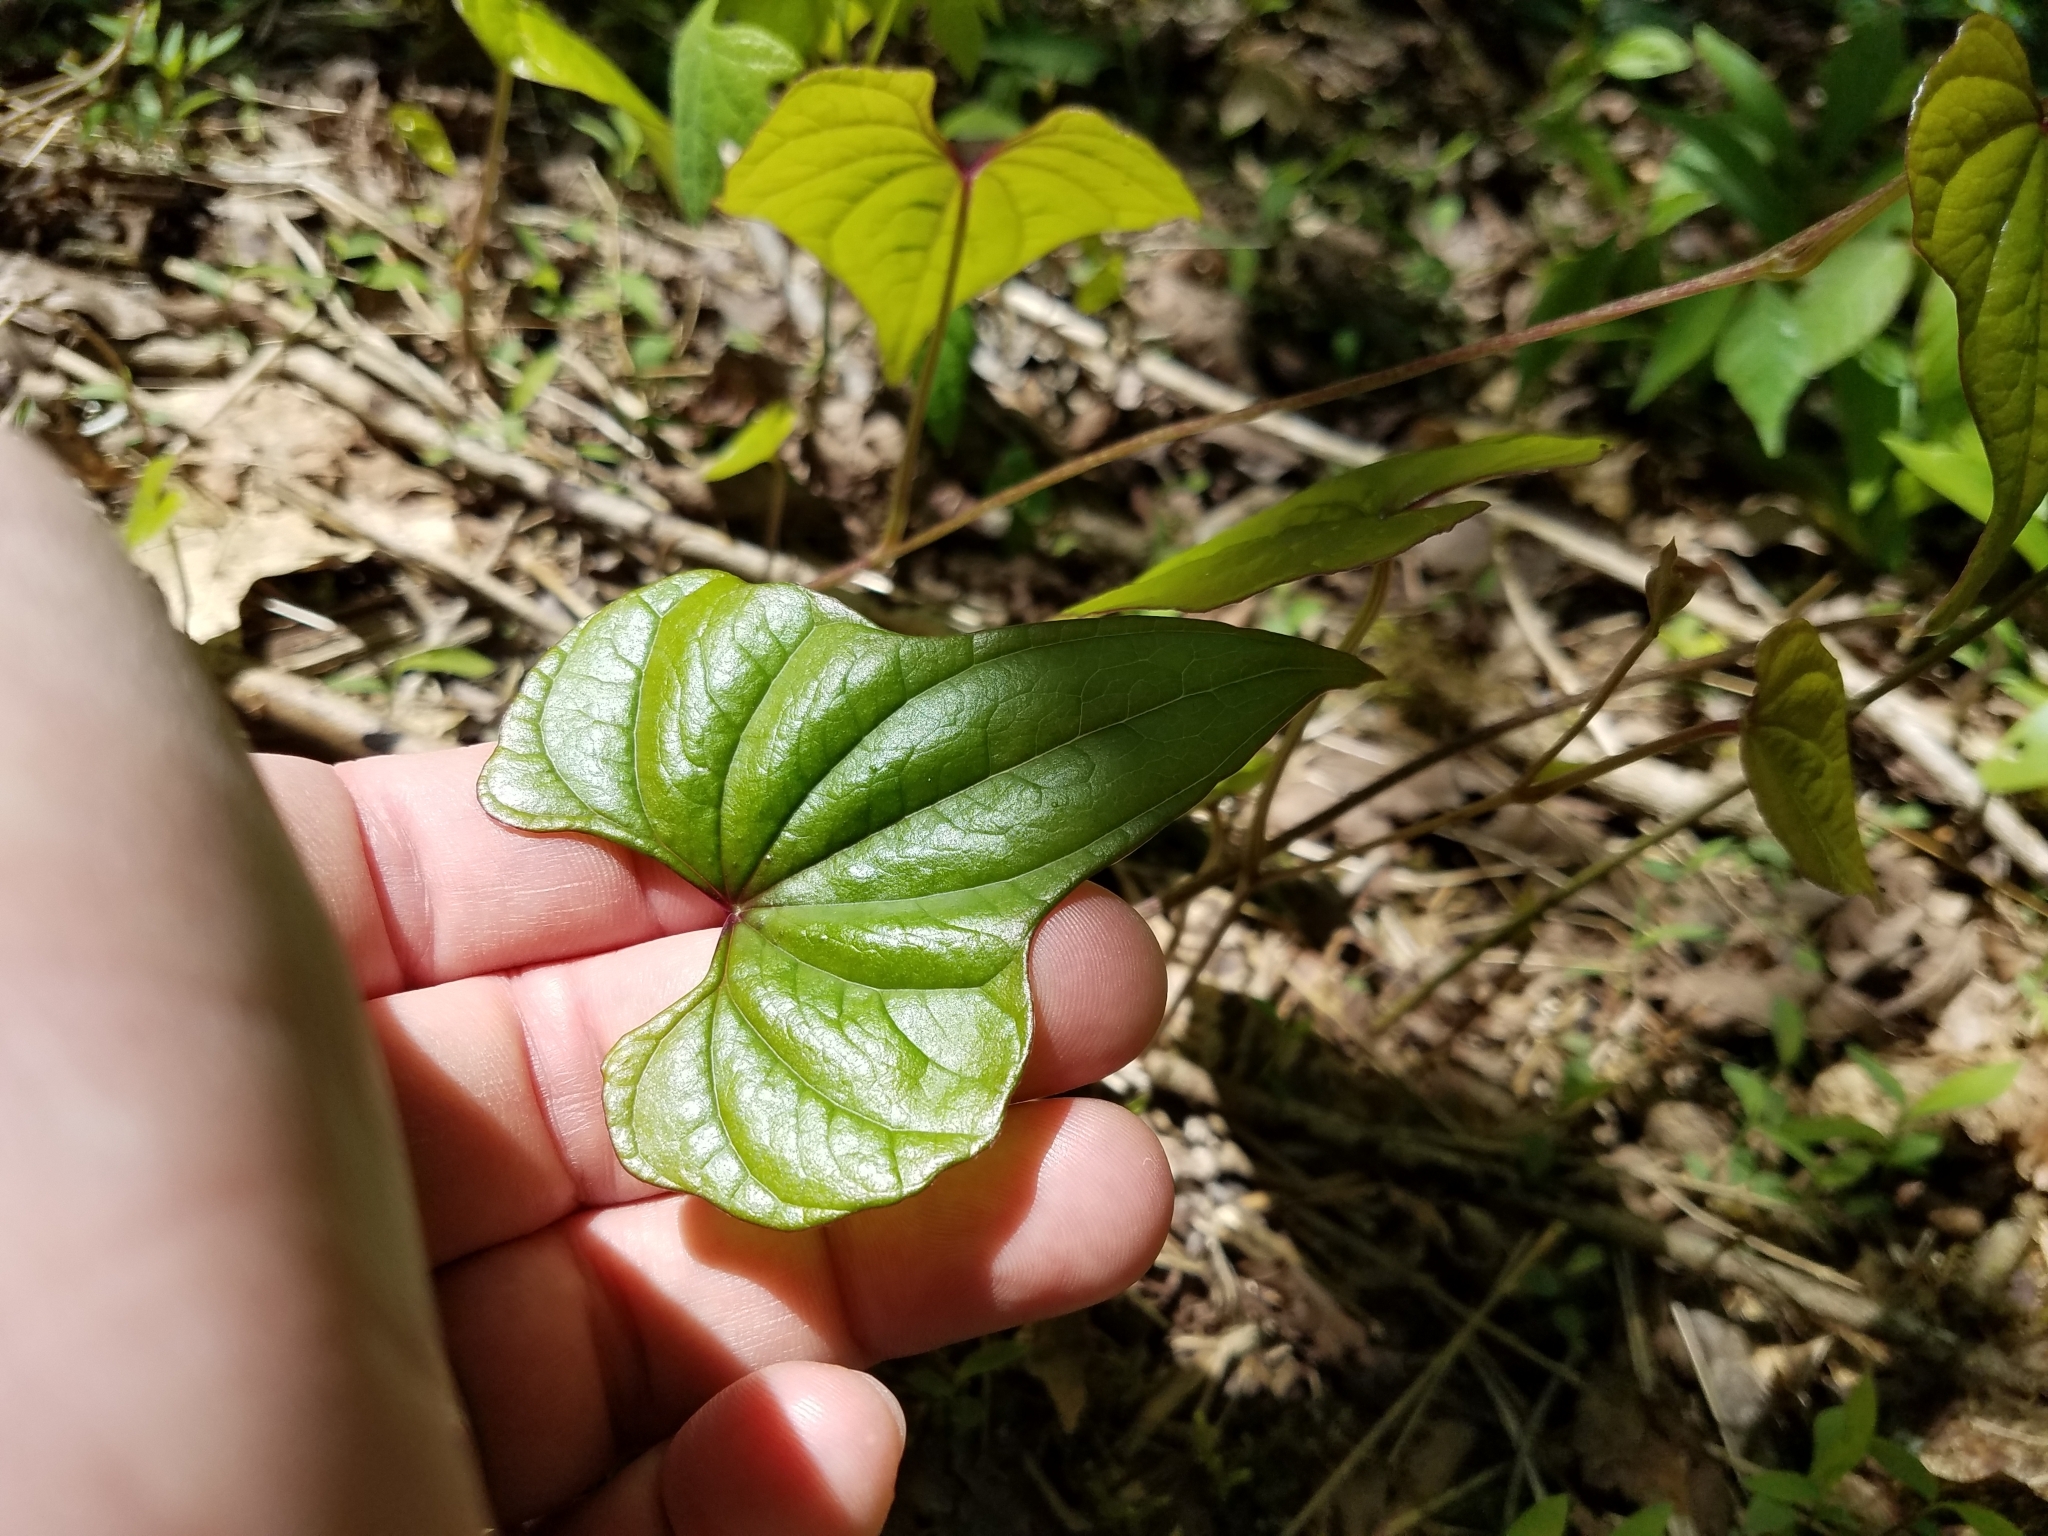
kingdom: Plantae
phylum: Tracheophyta
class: Liliopsida
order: Dioscoreales
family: Dioscoreaceae
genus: Dioscorea
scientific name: Dioscorea polystachya
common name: Chinese yam
